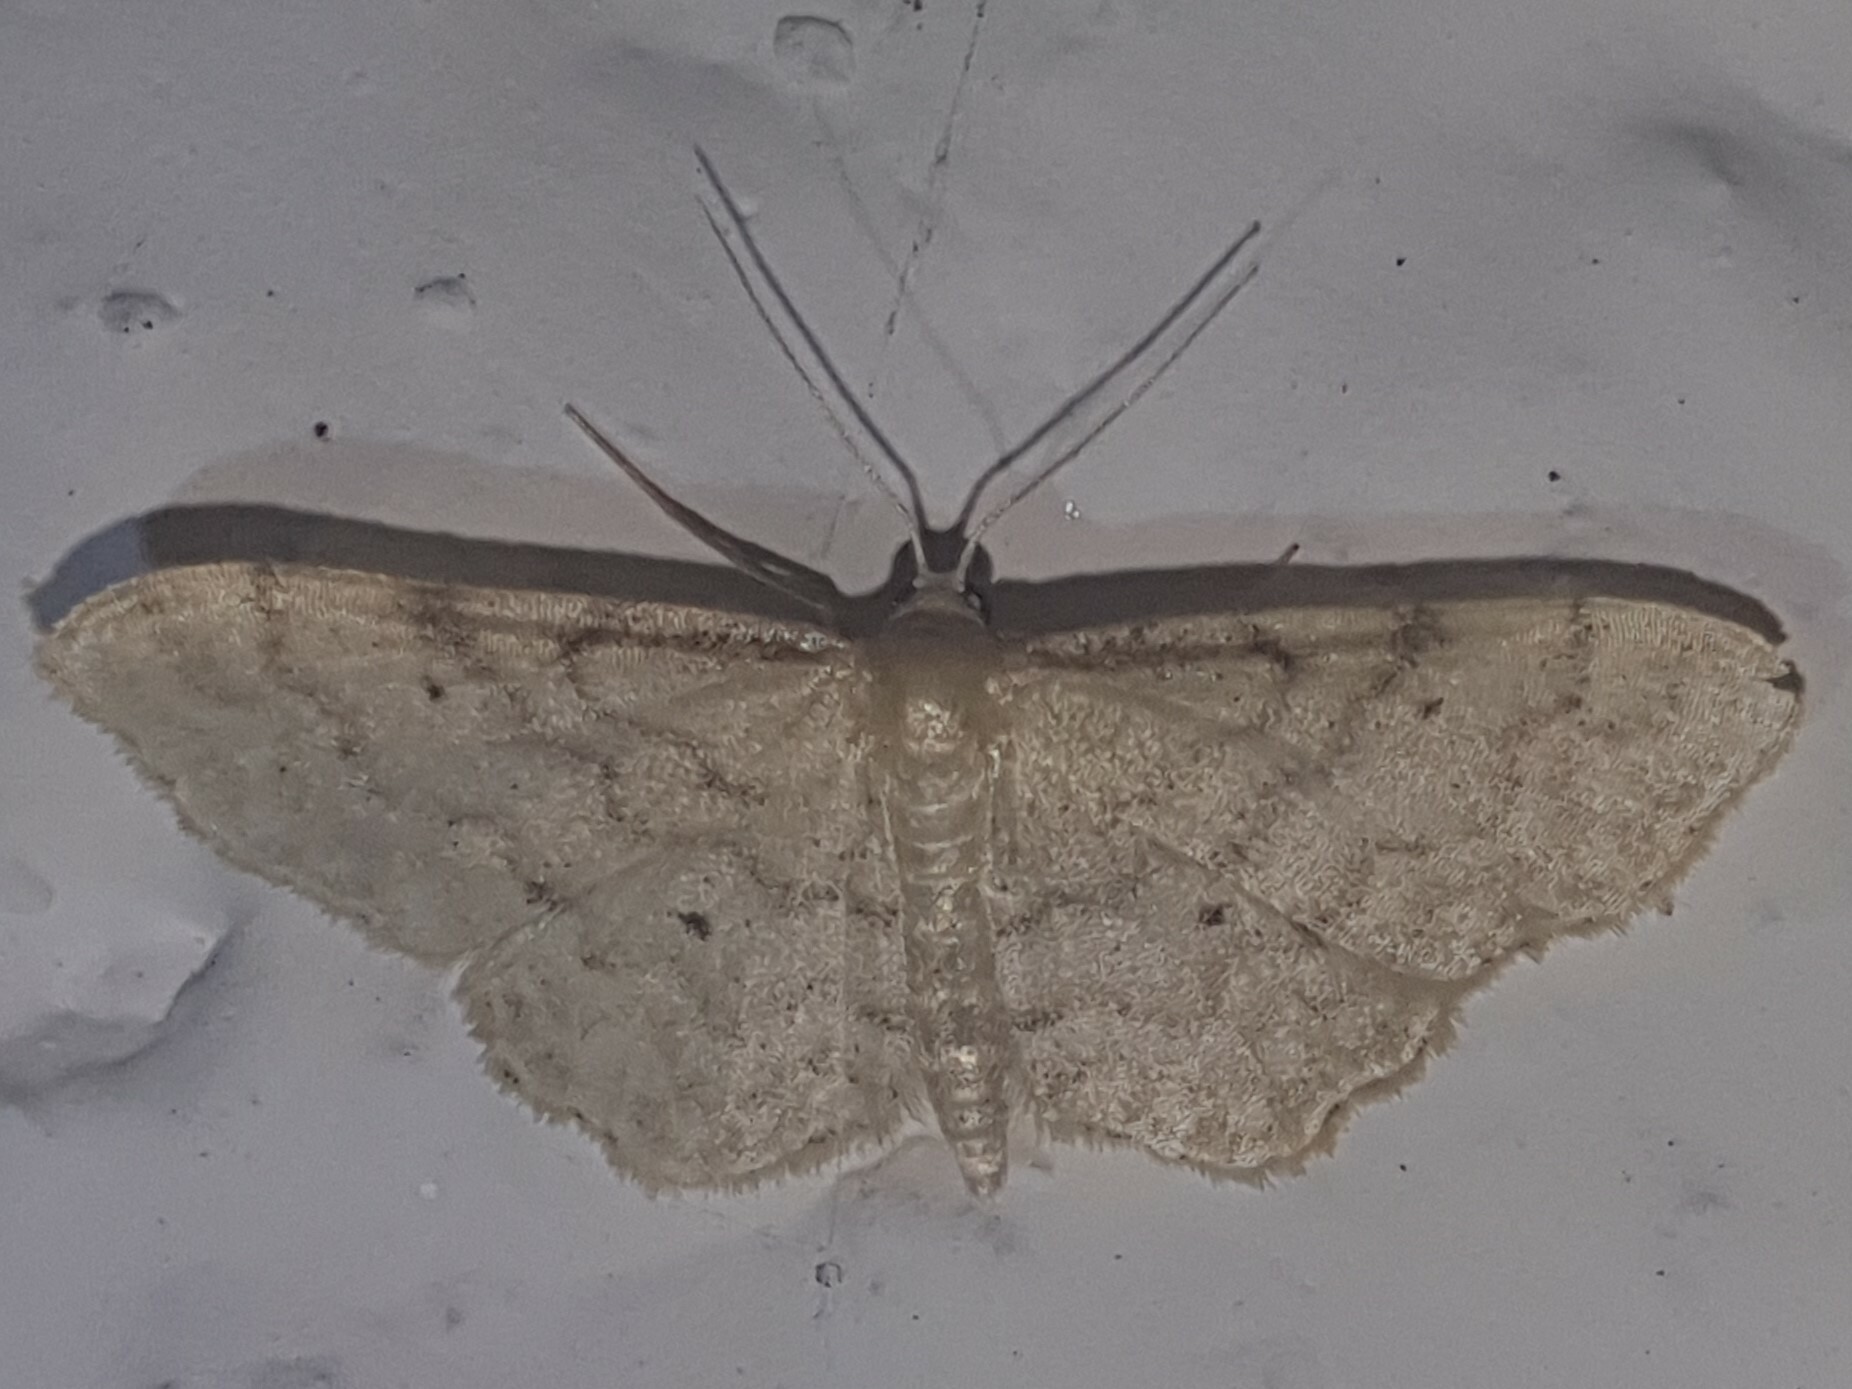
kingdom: Animalia
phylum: Arthropoda
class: Insecta
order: Lepidoptera
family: Geometridae
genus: Idaea
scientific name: Idaea fuscovenosa
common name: Dwarf cream wave
